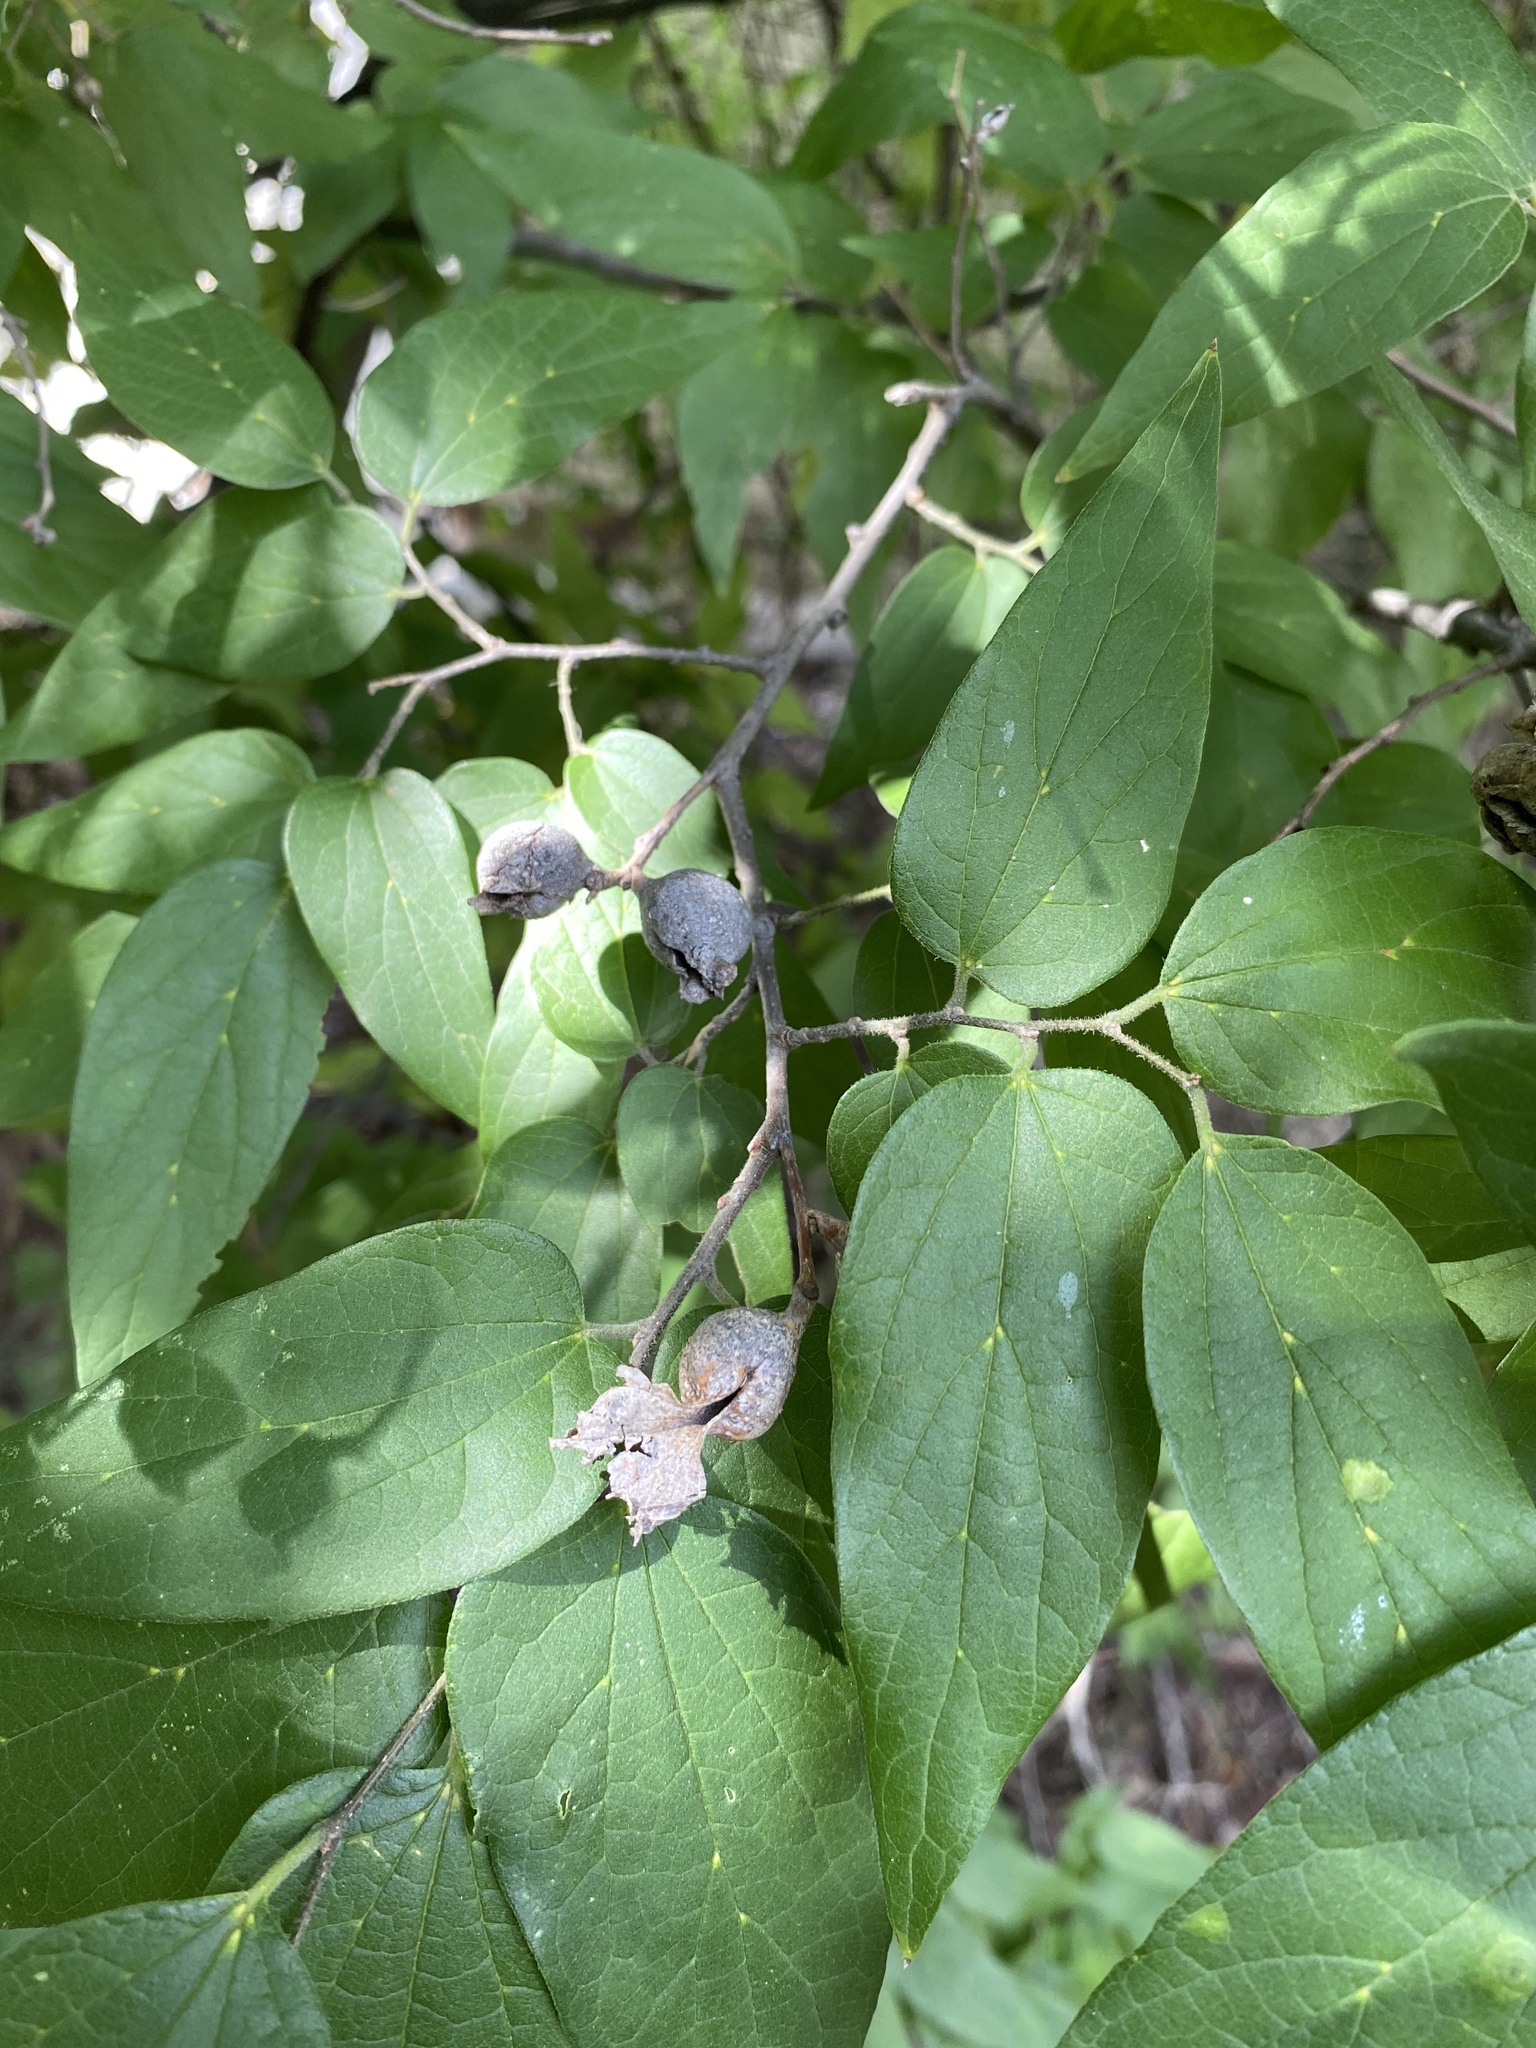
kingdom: Animalia
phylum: Arthropoda
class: Insecta
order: Hemiptera
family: Aphalaridae
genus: Pachypsylla
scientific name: Pachypsylla venusta
